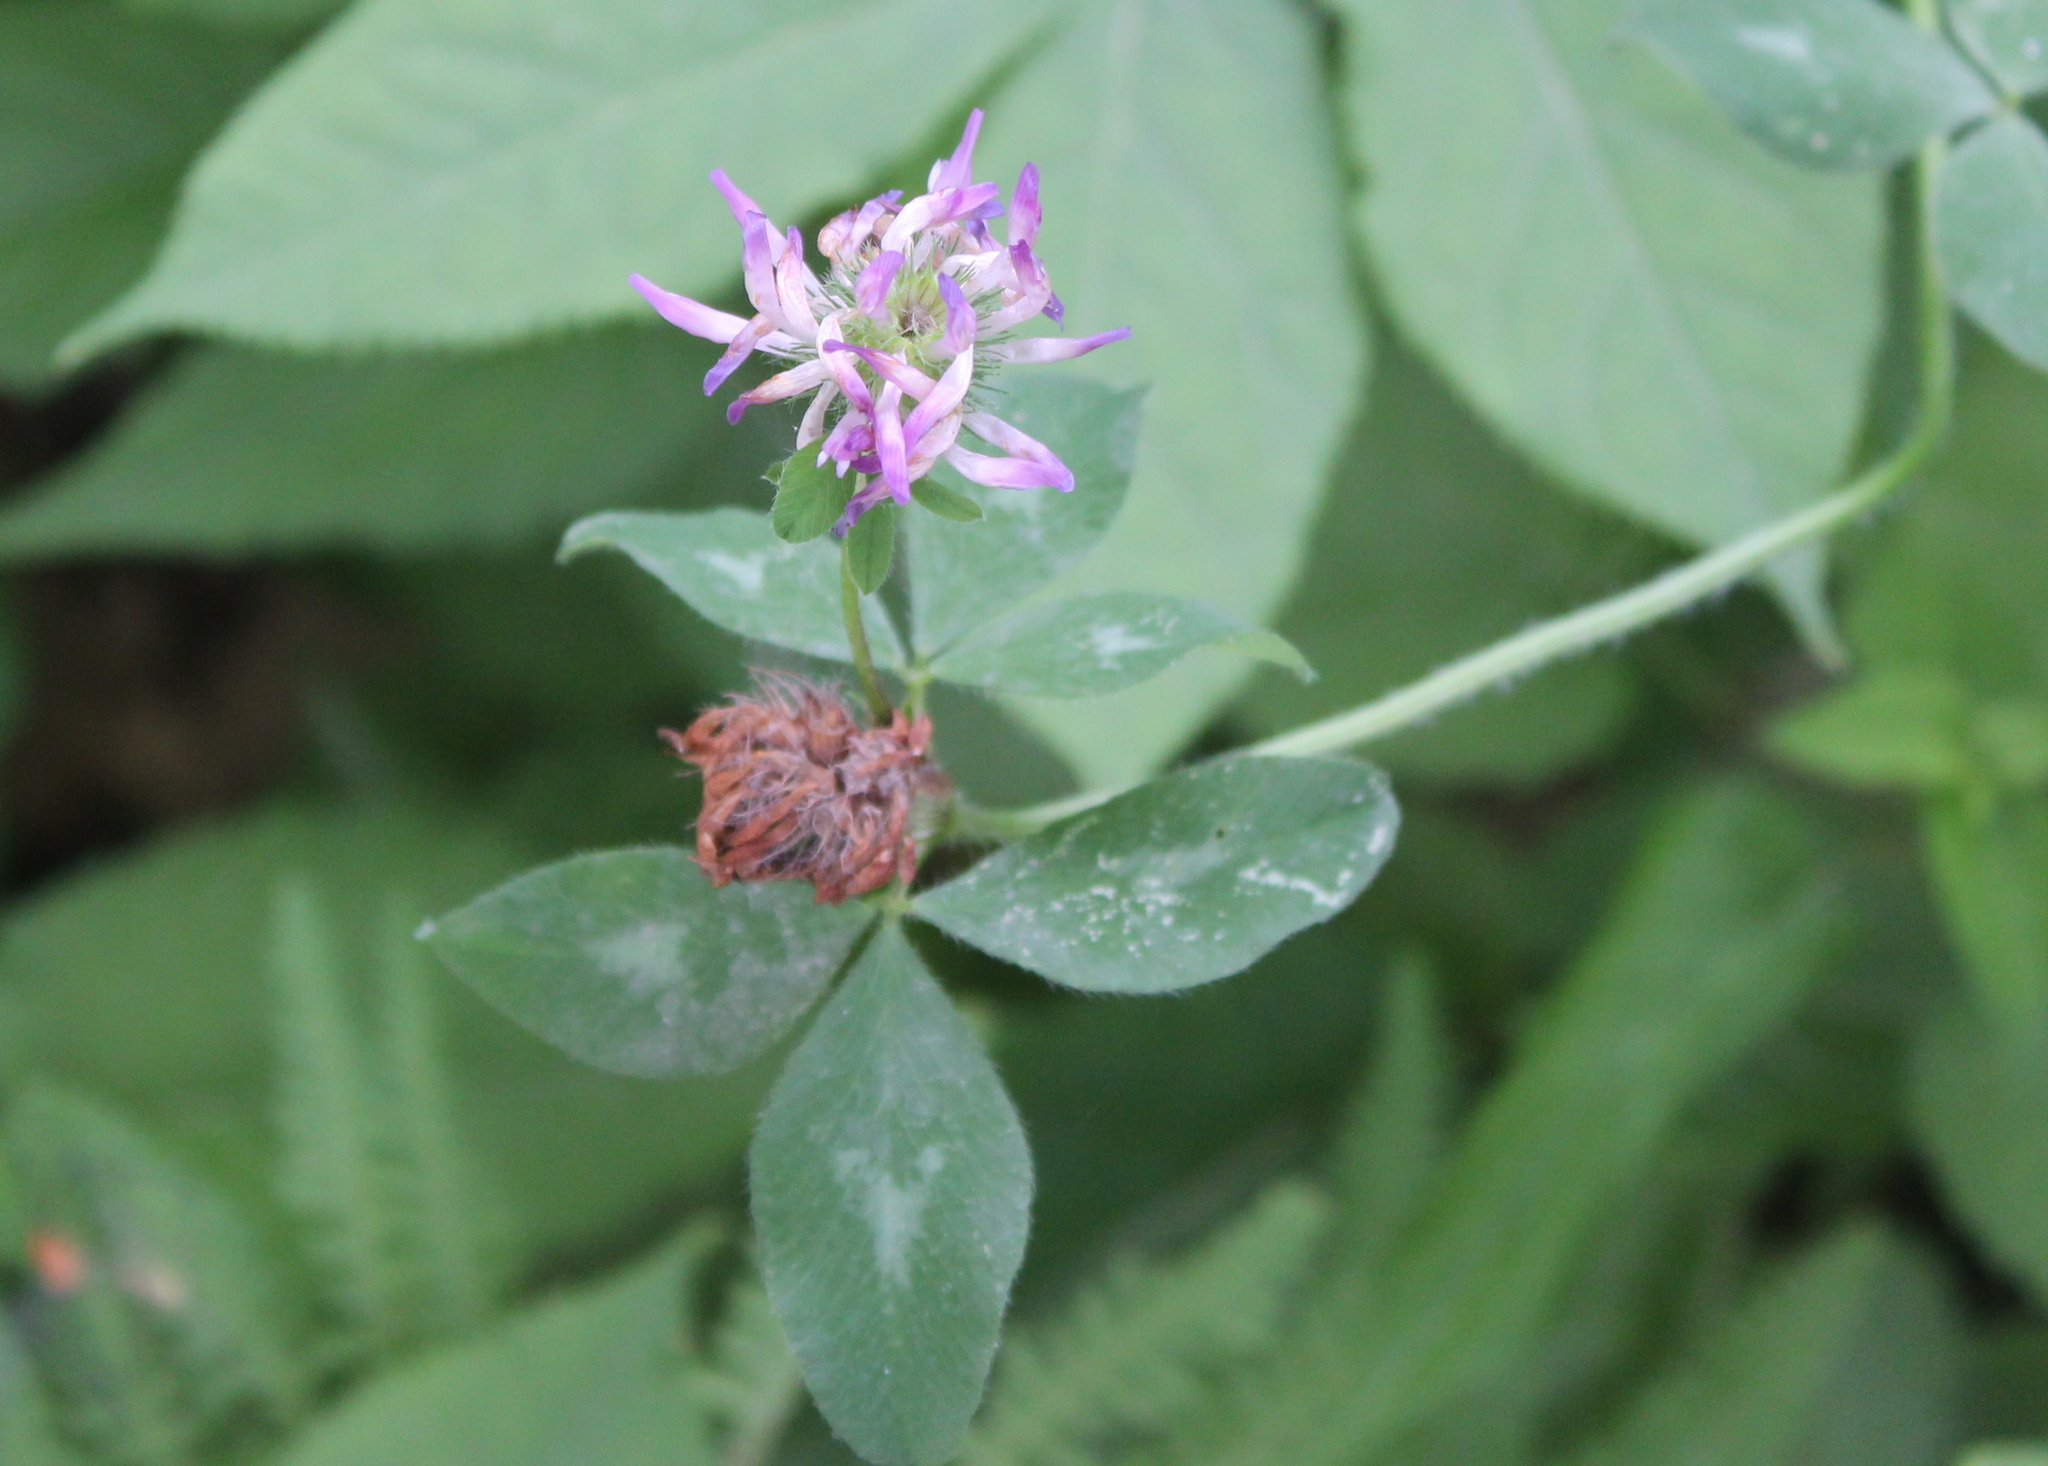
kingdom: Plantae
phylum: Tracheophyta
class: Magnoliopsida
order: Fabales
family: Fabaceae
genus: Trifolium
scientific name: Trifolium pratense
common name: Red clover
